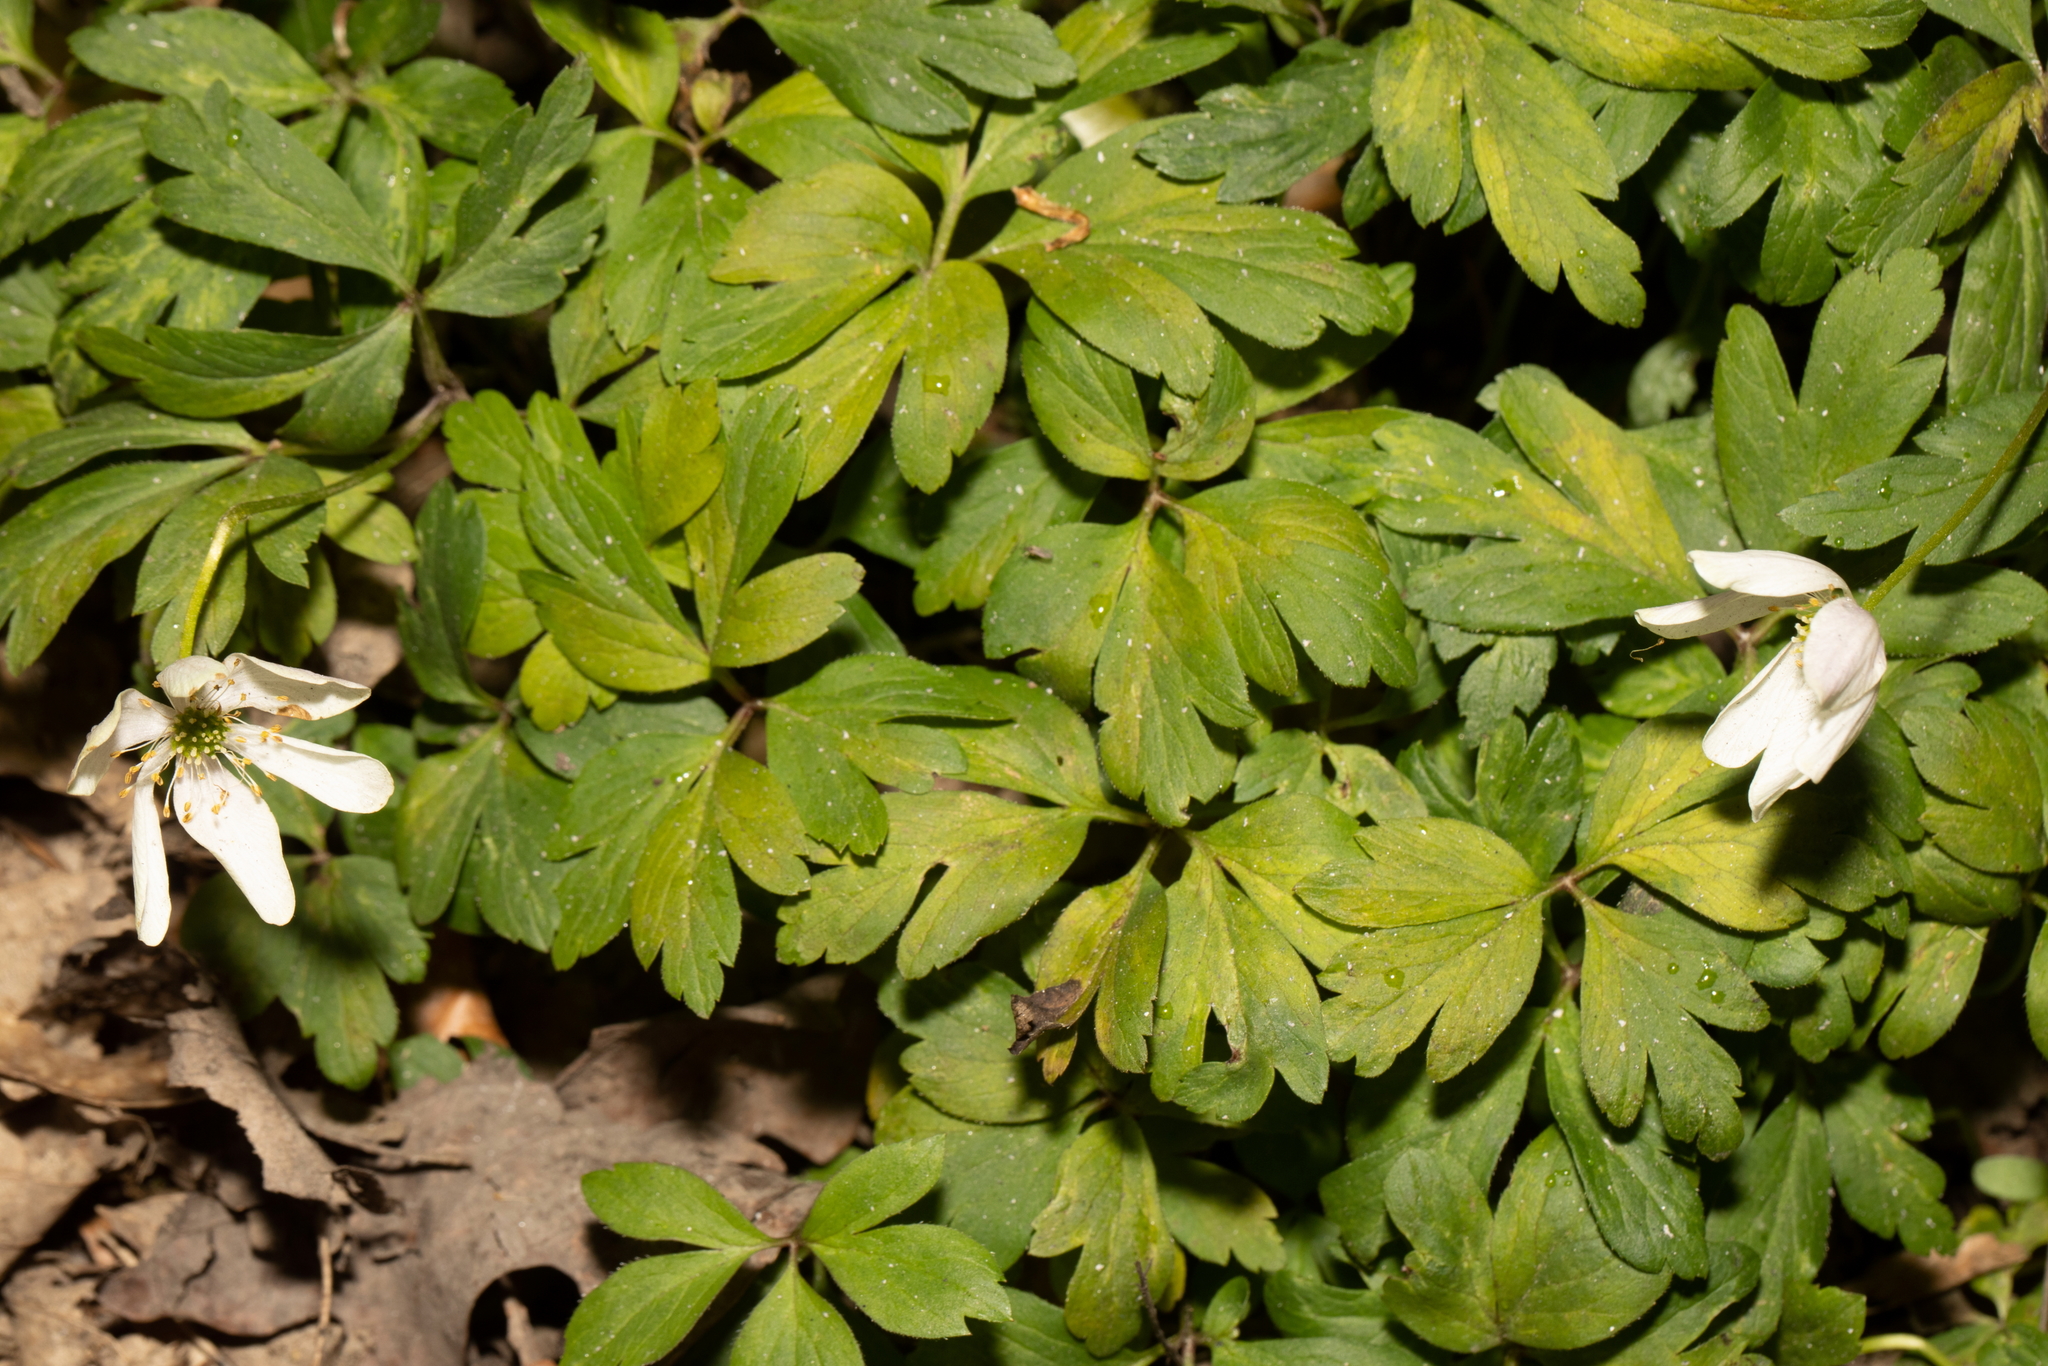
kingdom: Plantae
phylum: Tracheophyta
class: Magnoliopsida
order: Ranunculales
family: Ranunculaceae
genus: Anemone
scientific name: Anemone nemorosa
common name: Wood anemone
